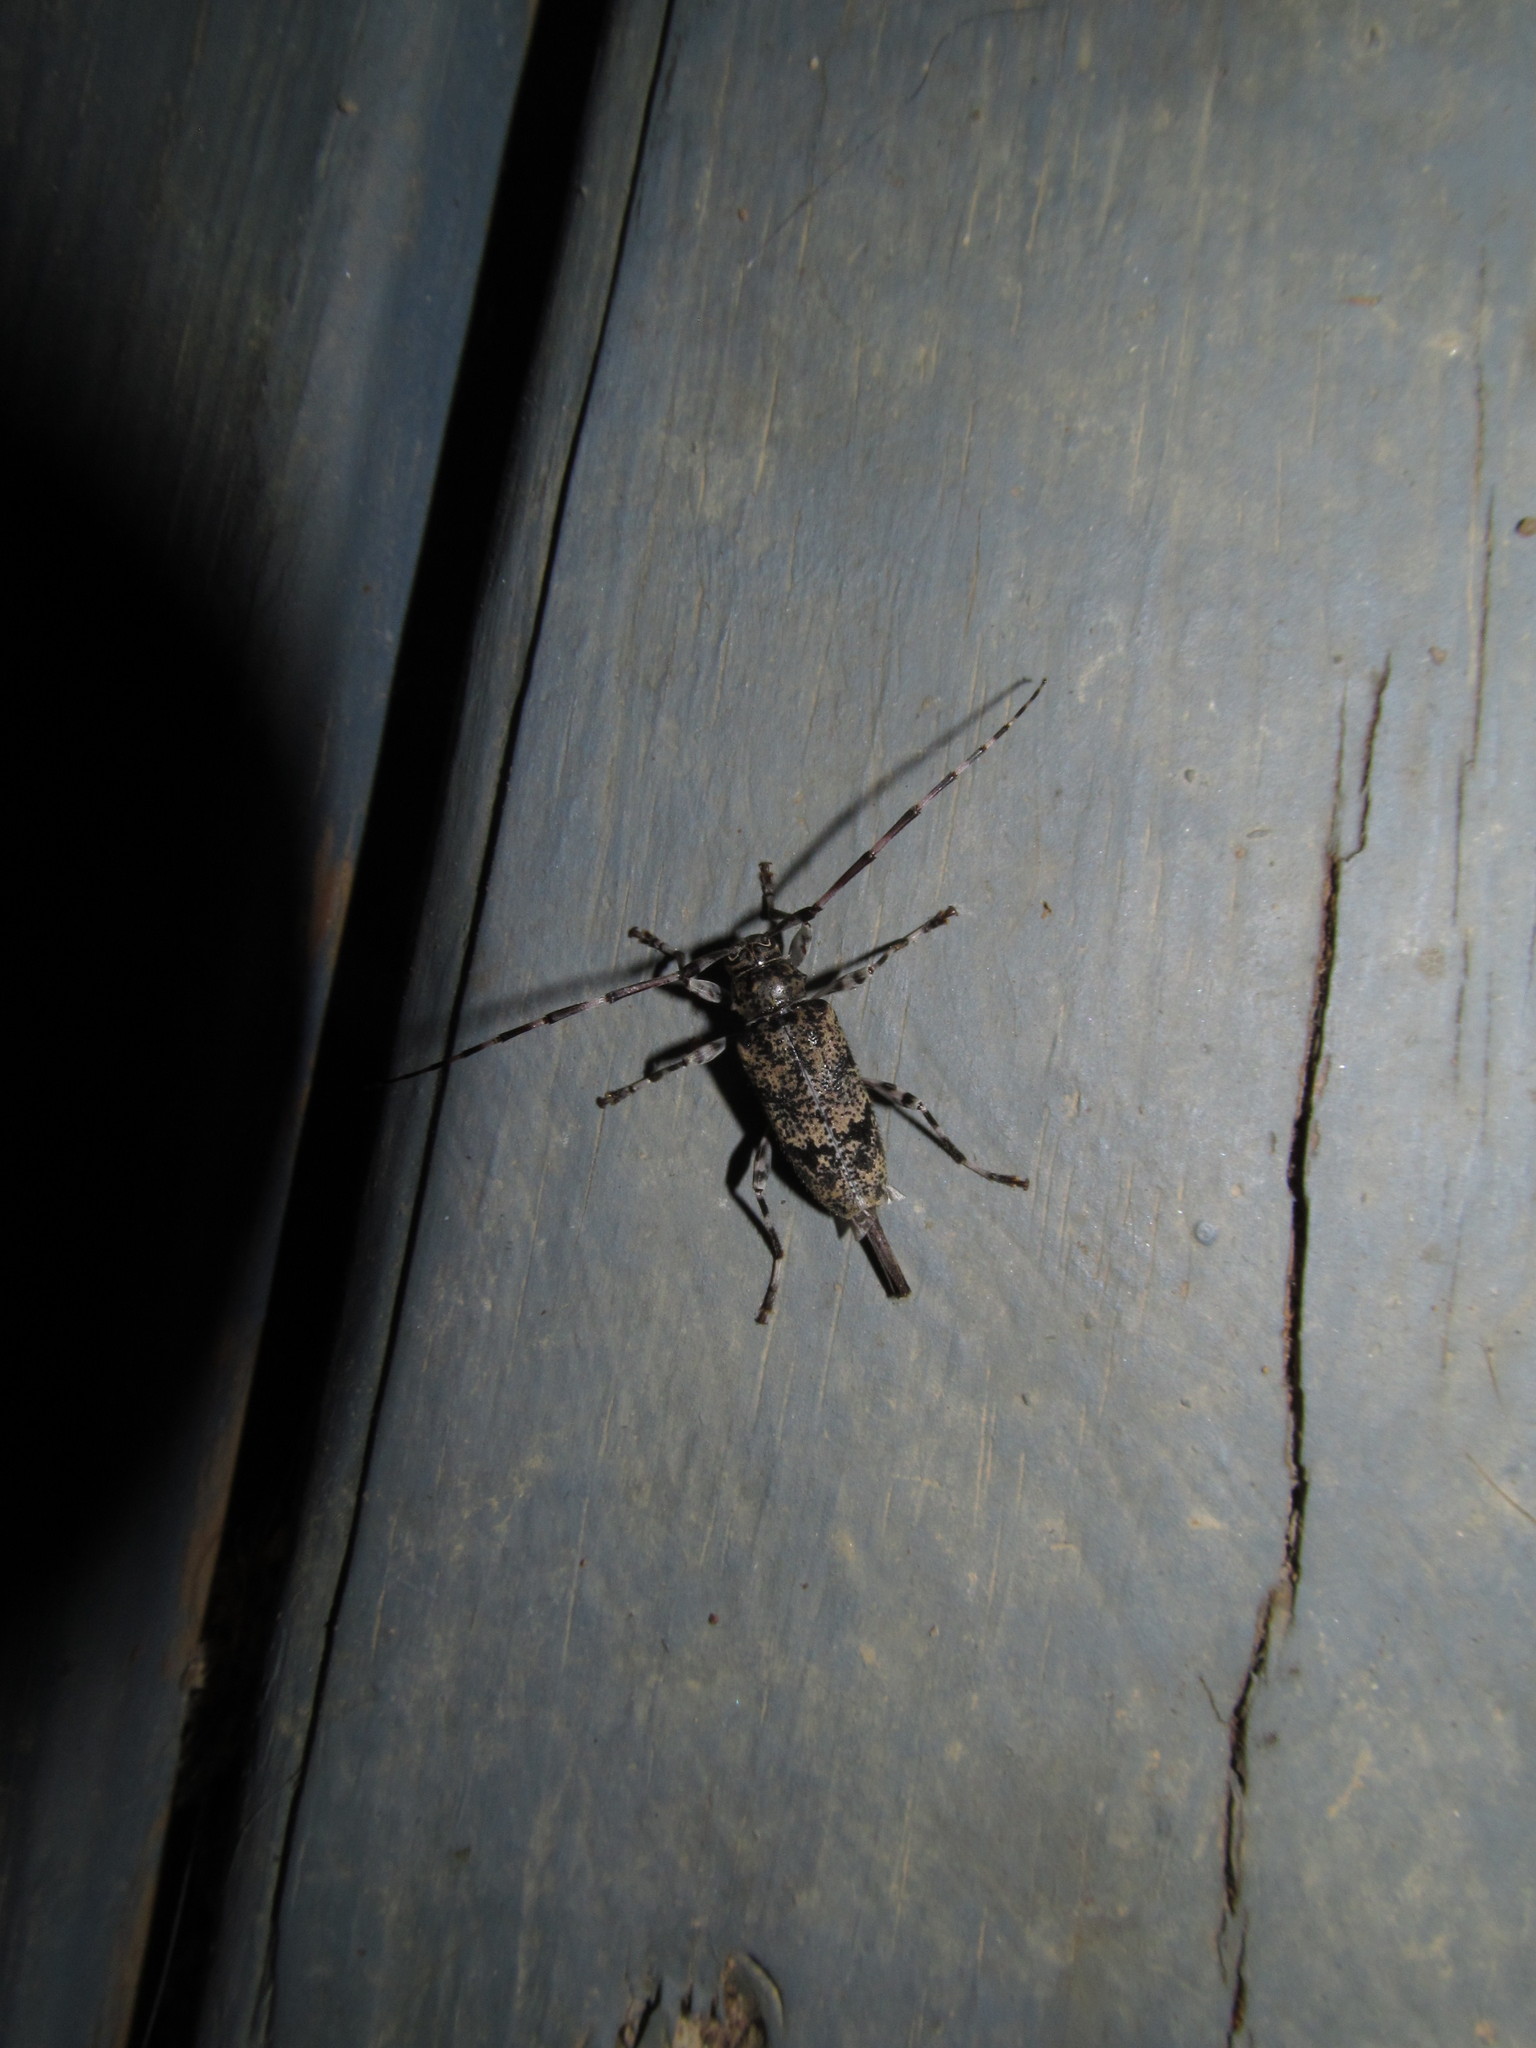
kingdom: Animalia
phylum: Arthropoda
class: Insecta
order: Coleoptera
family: Cerambycidae
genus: Graphisurus
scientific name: Graphisurus fasciatus
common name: Banded graphisurus
